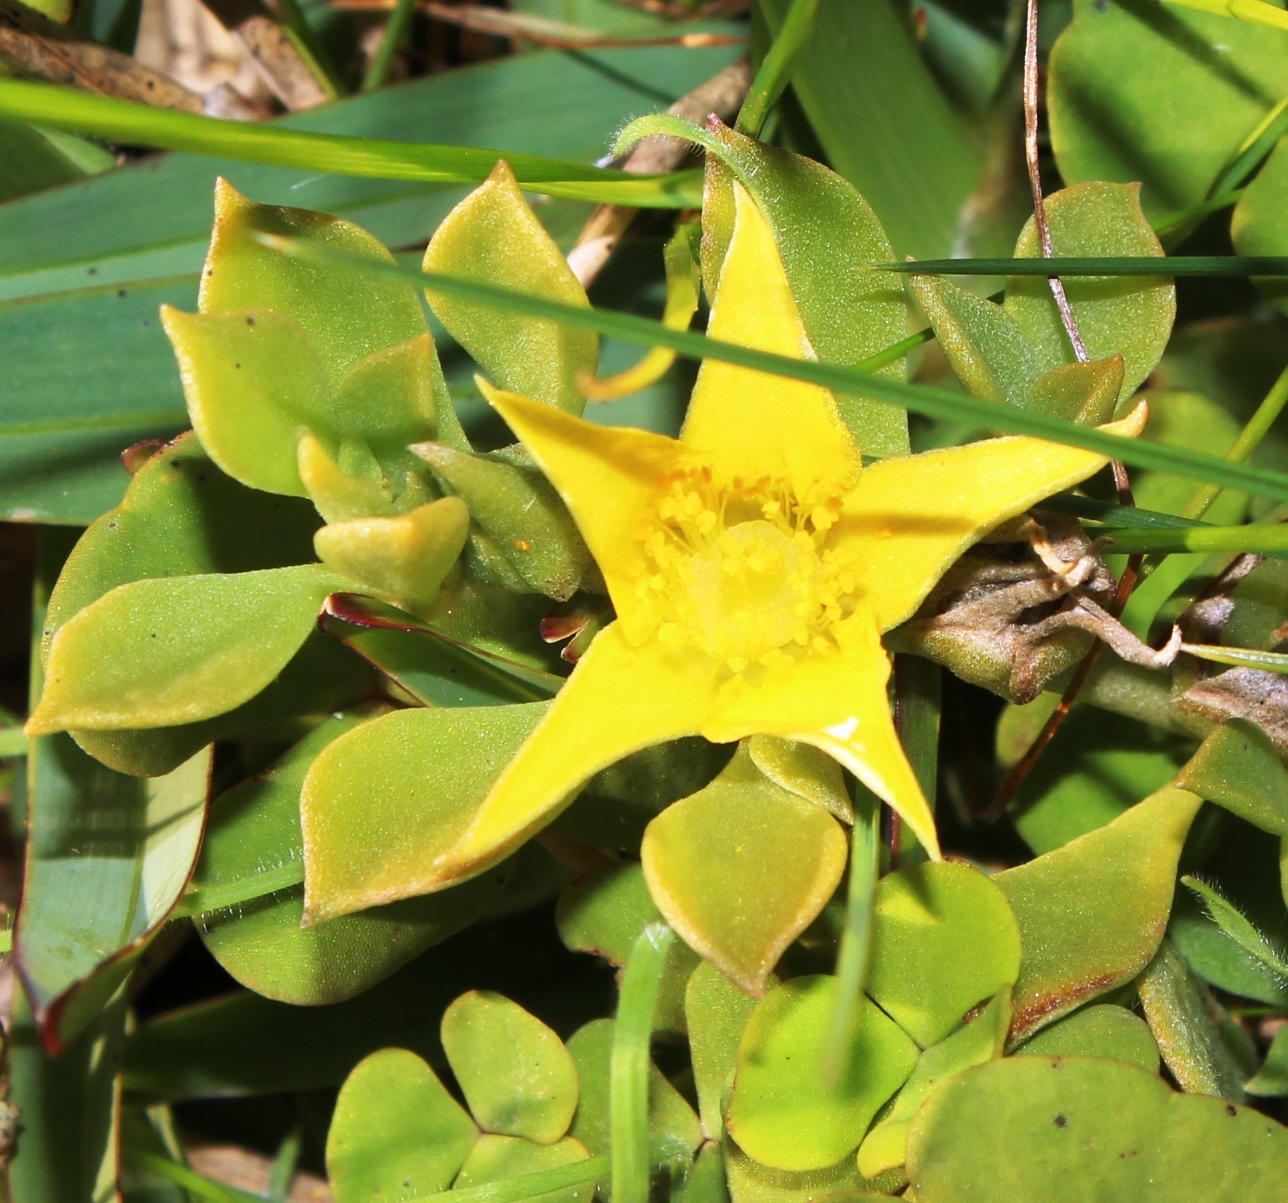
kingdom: Plantae
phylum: Tracheophyta
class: Magnoliopsida
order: Caryophyllales
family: Aizoaceae
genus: Aizoon
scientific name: Aizoon rigidum
